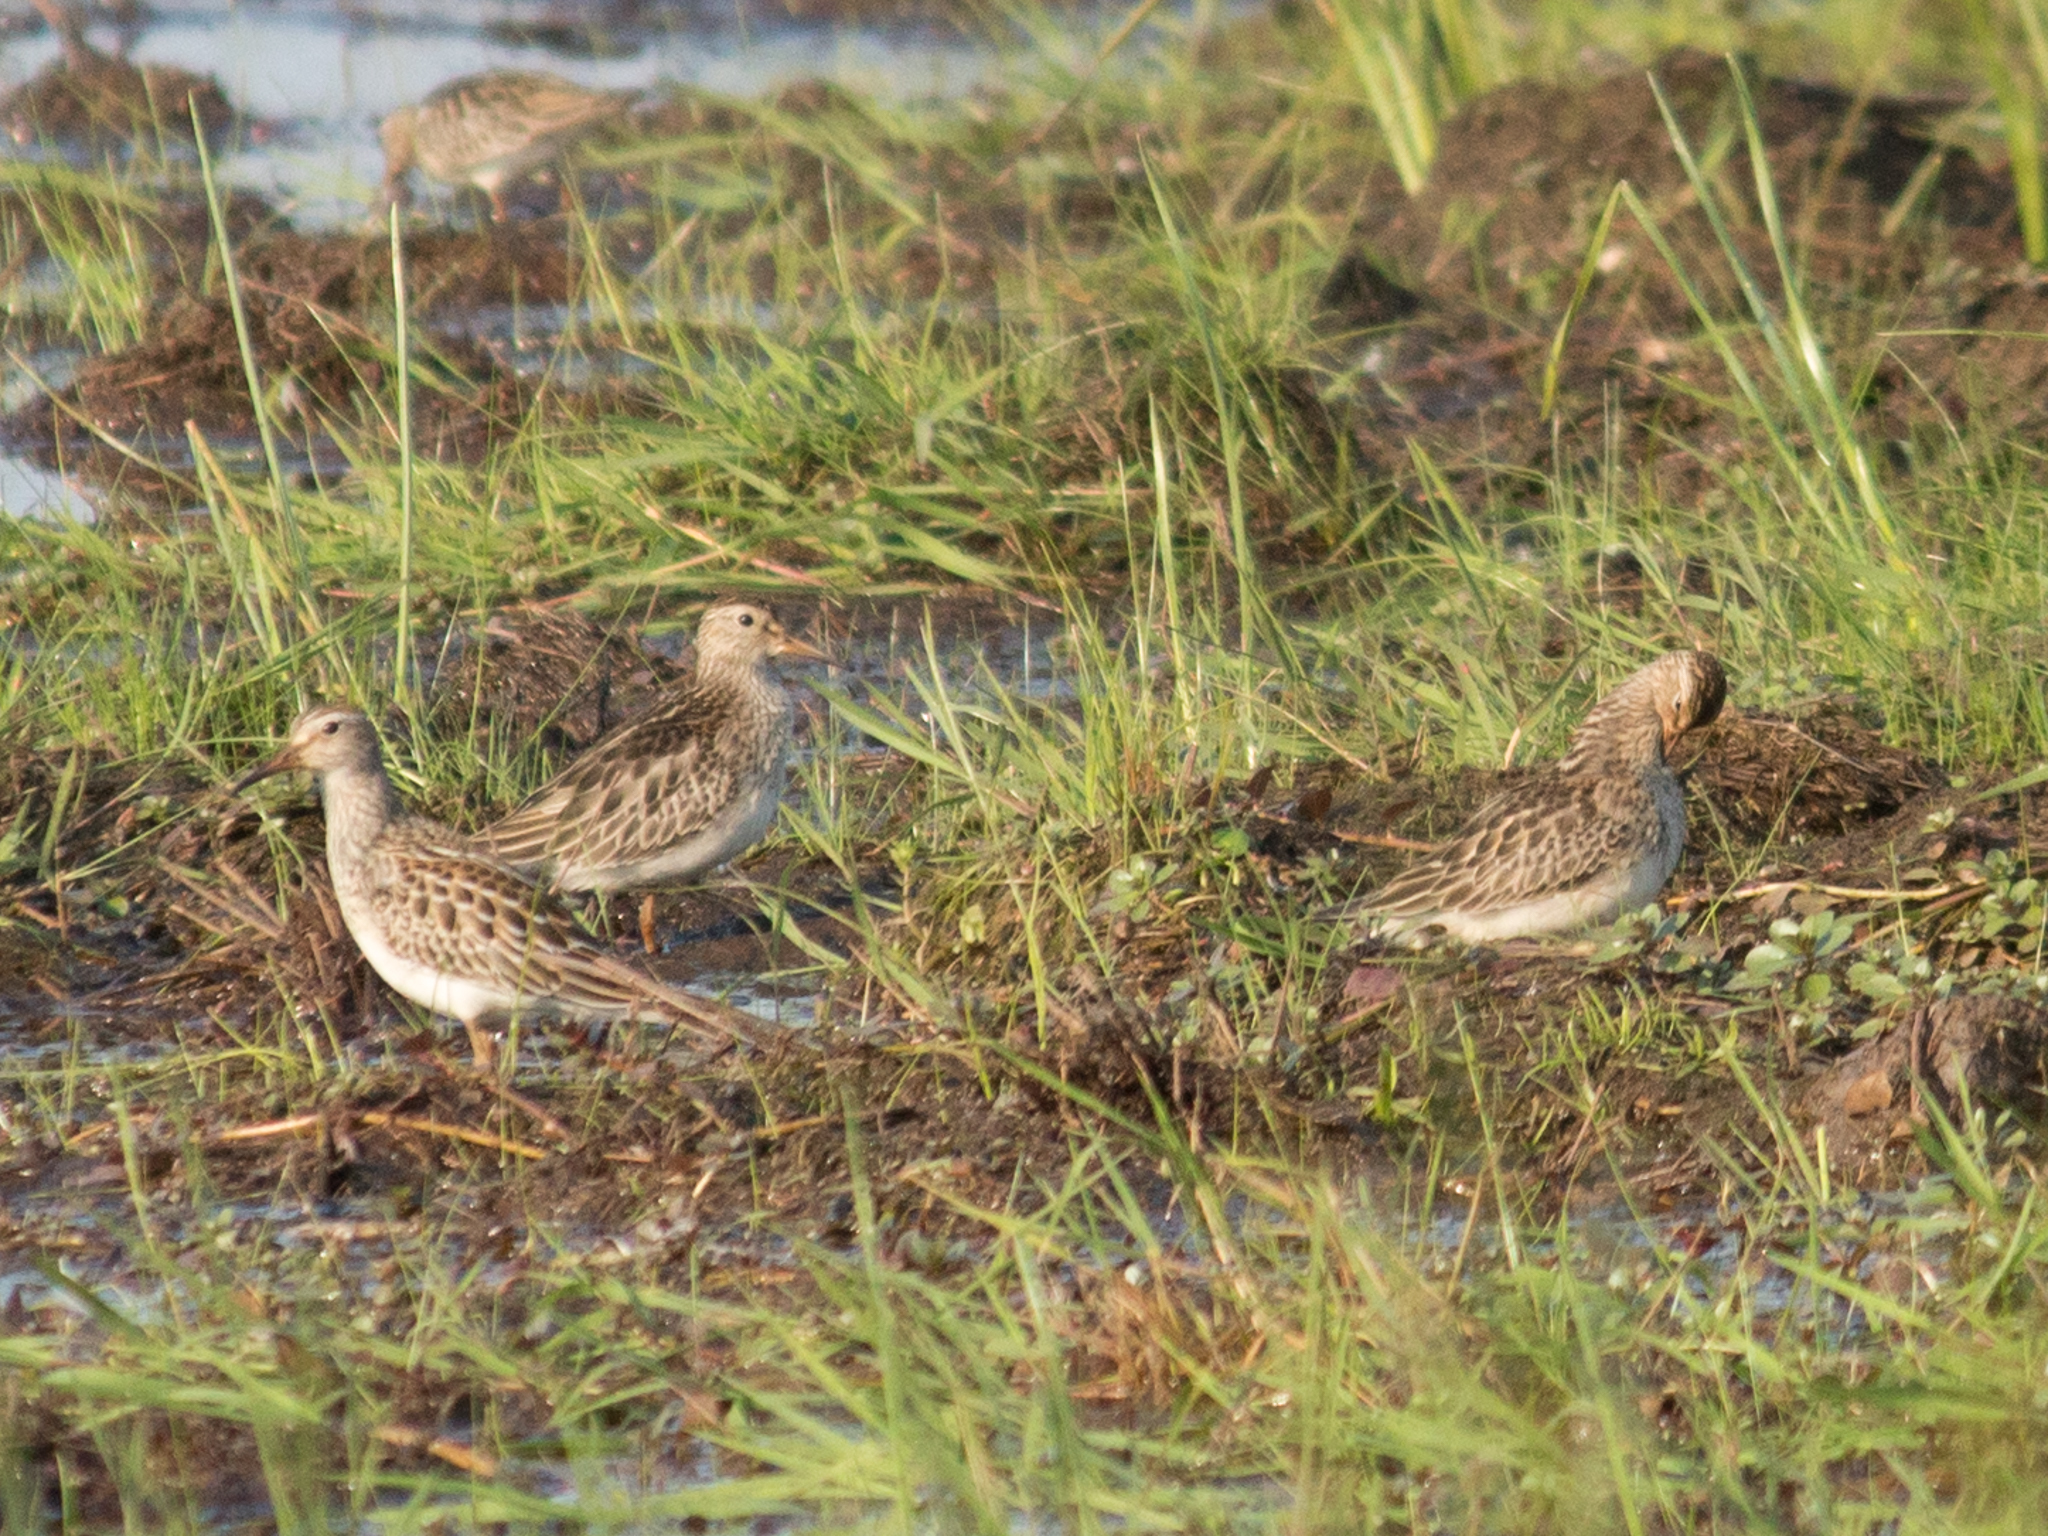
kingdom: Animalia
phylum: Chordata
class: Aves
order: Charadriiformes
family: Scolopacidae
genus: Calidris
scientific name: Calidris melanotos
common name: Pectoral sandpiper
